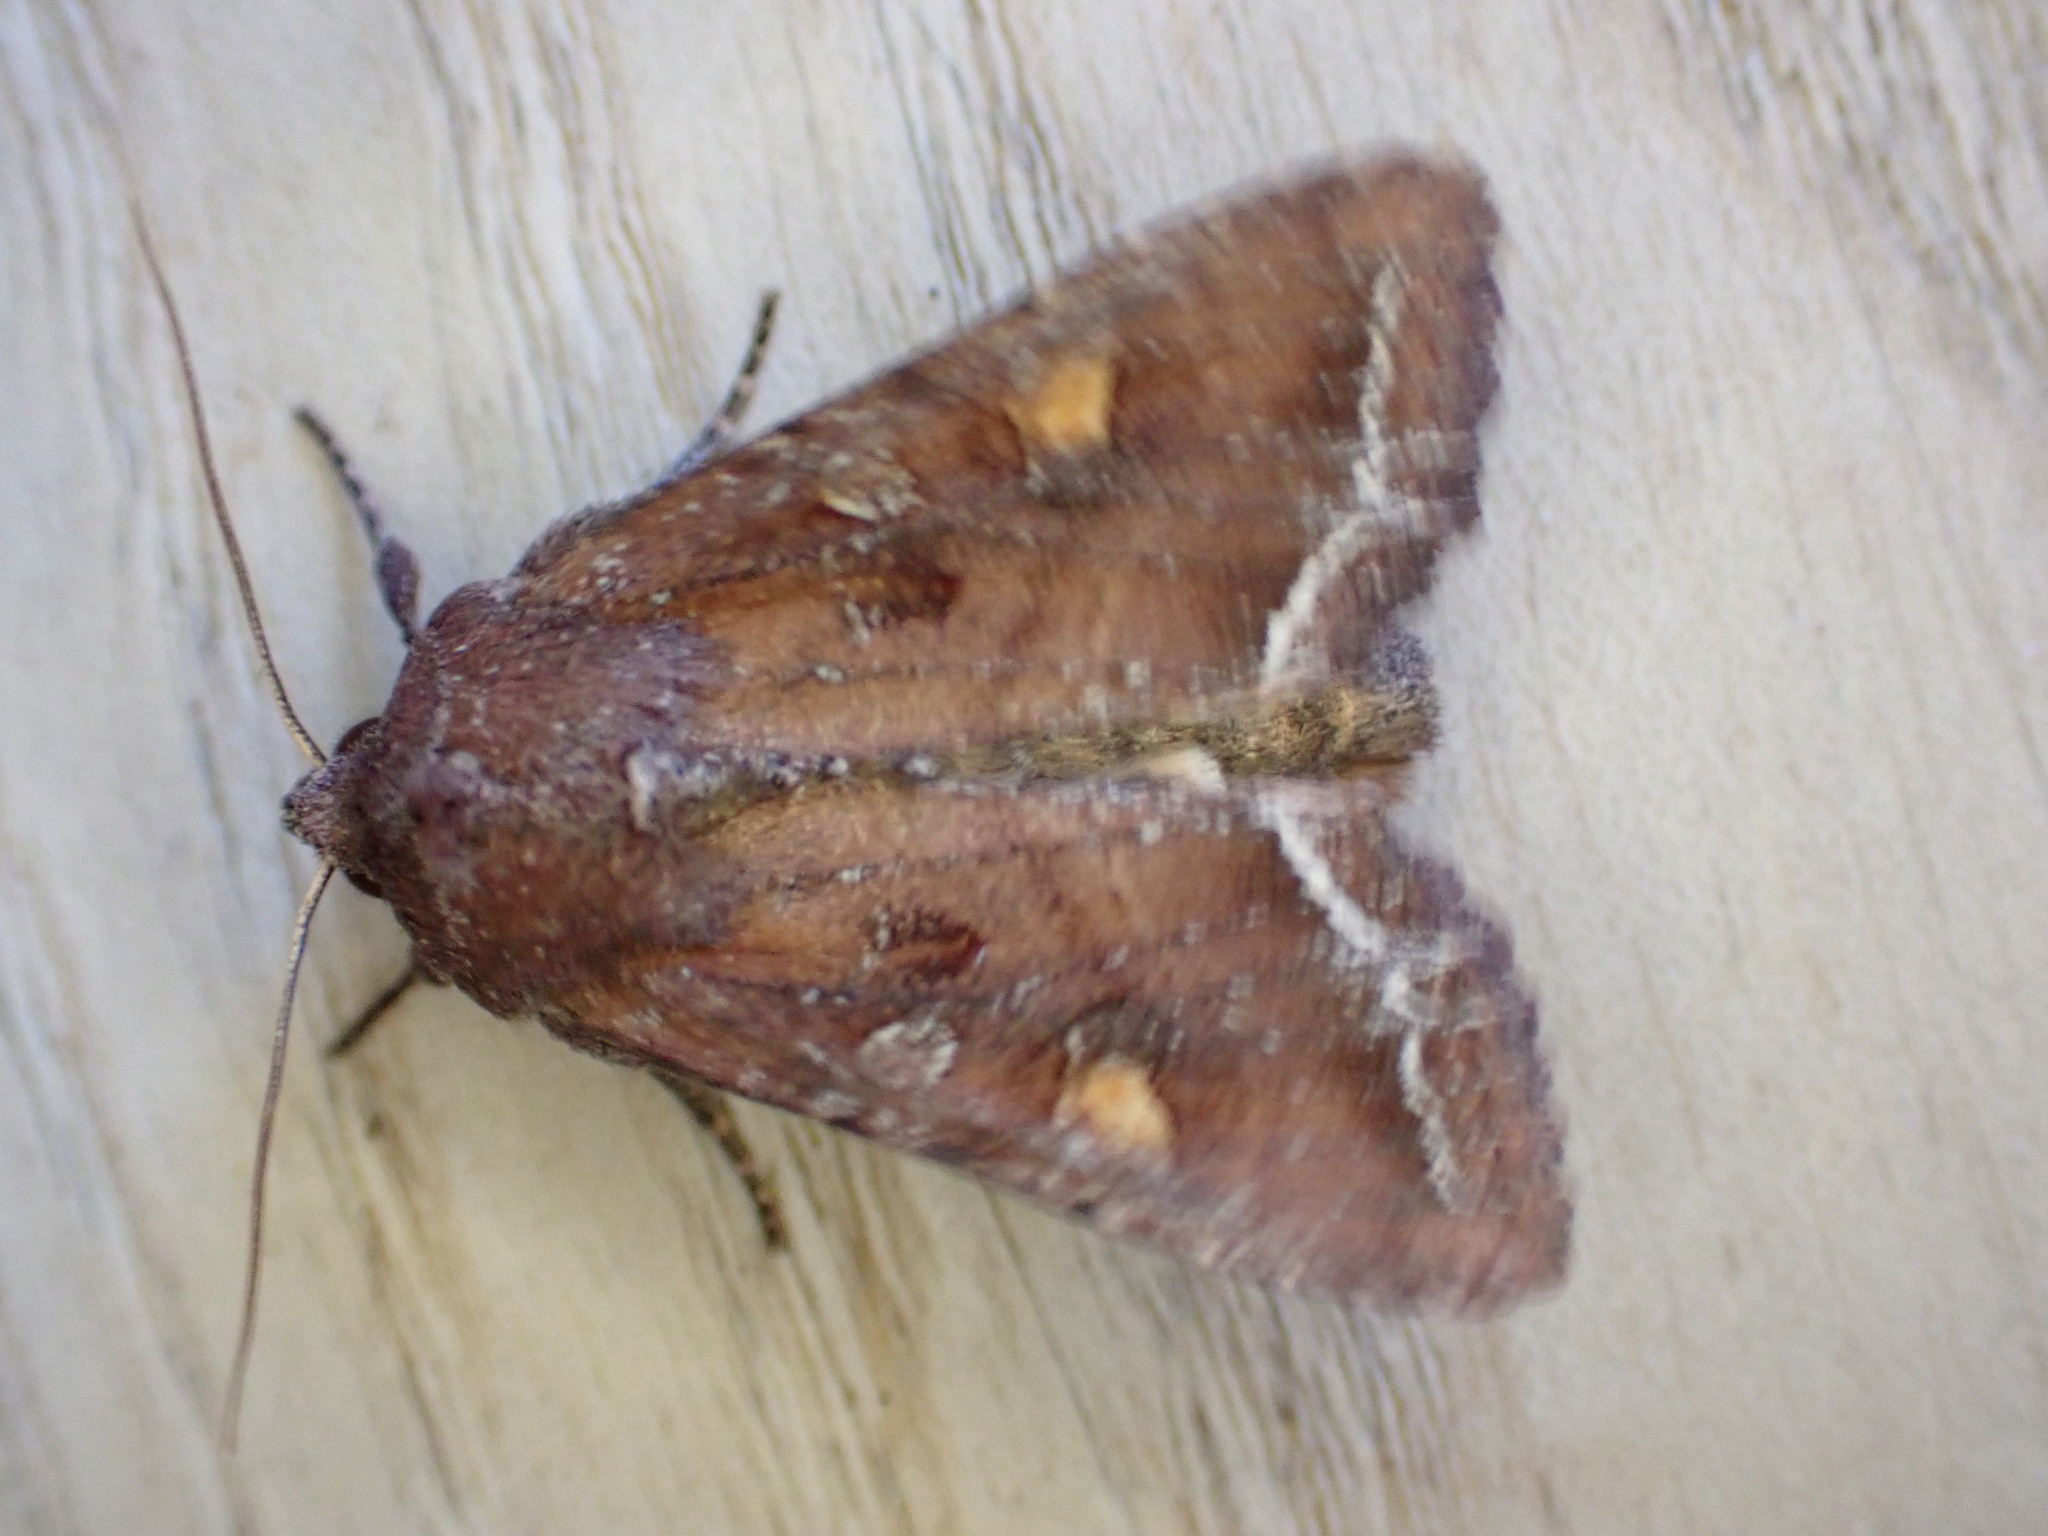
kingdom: Animalia
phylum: Arthropoda
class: Insecta
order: Lepidoptera
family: Noctuidae
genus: Lacanobia
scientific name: Lacanobia oleracea
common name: Bright-line brown-eye
